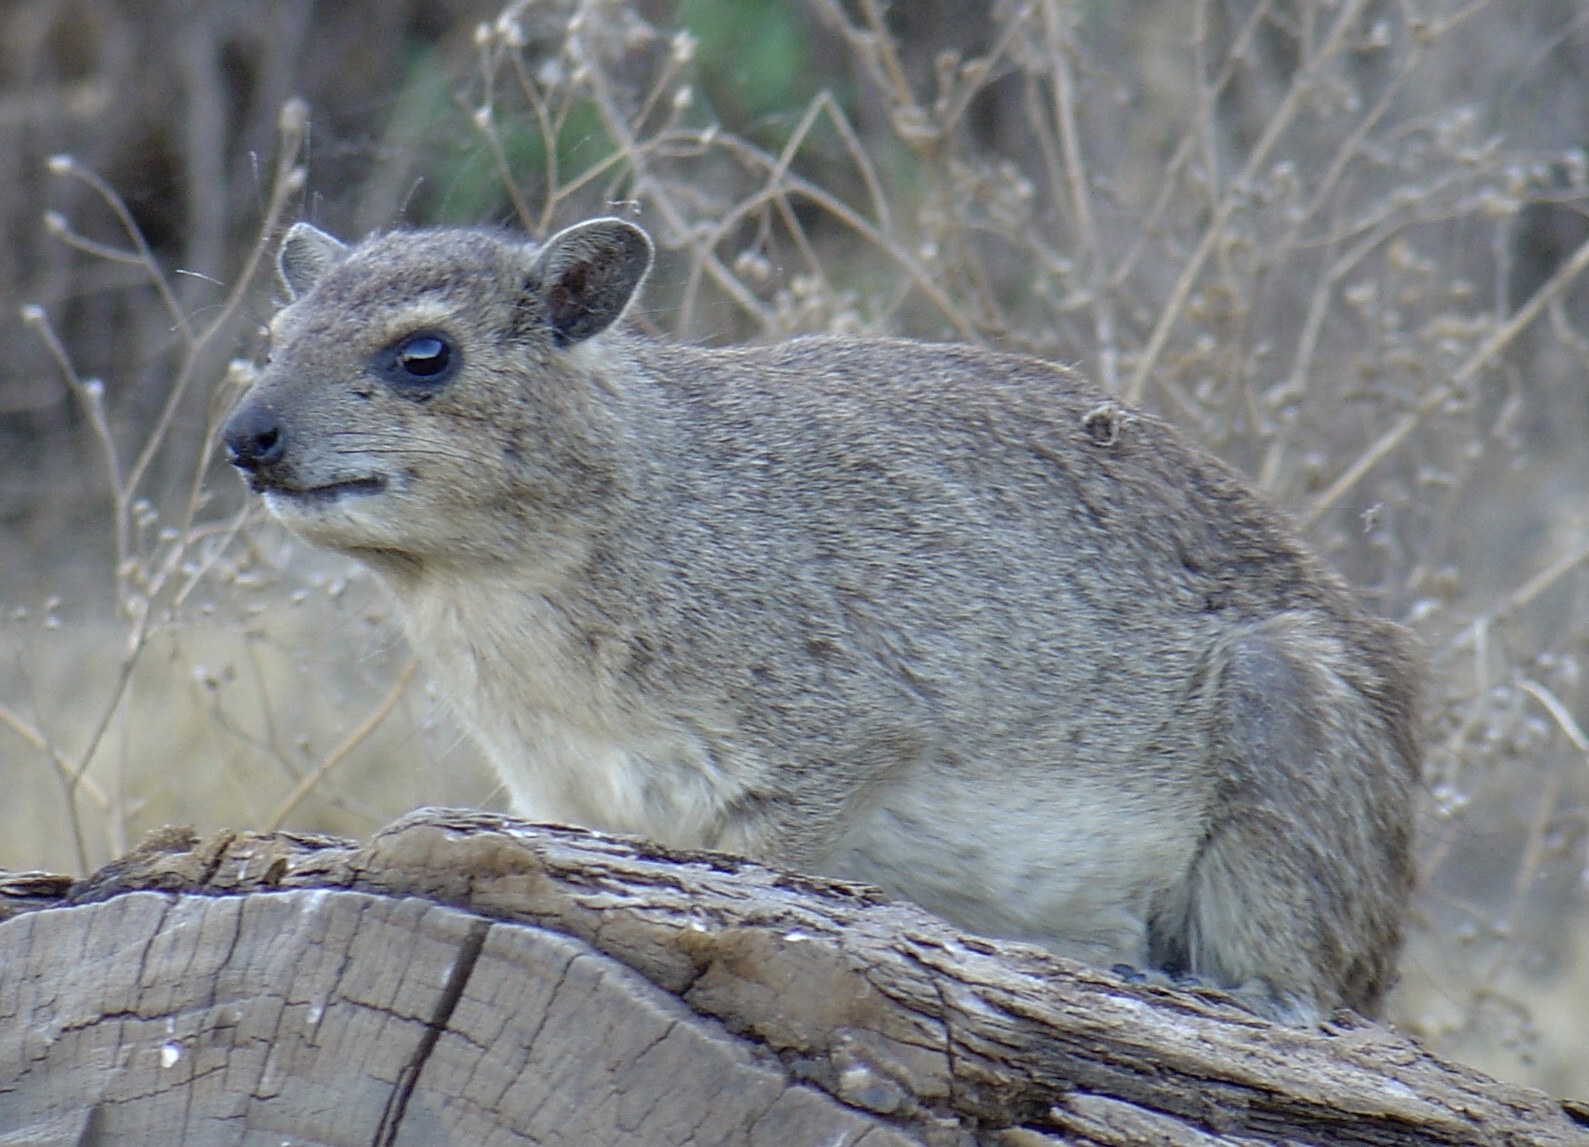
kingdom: Animalia
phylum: Chordata
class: Mammalia
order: Hyracoidea
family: Procaviidae
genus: Heterohyrax
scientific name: Heterohyrax brucei
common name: Bush hyrax
